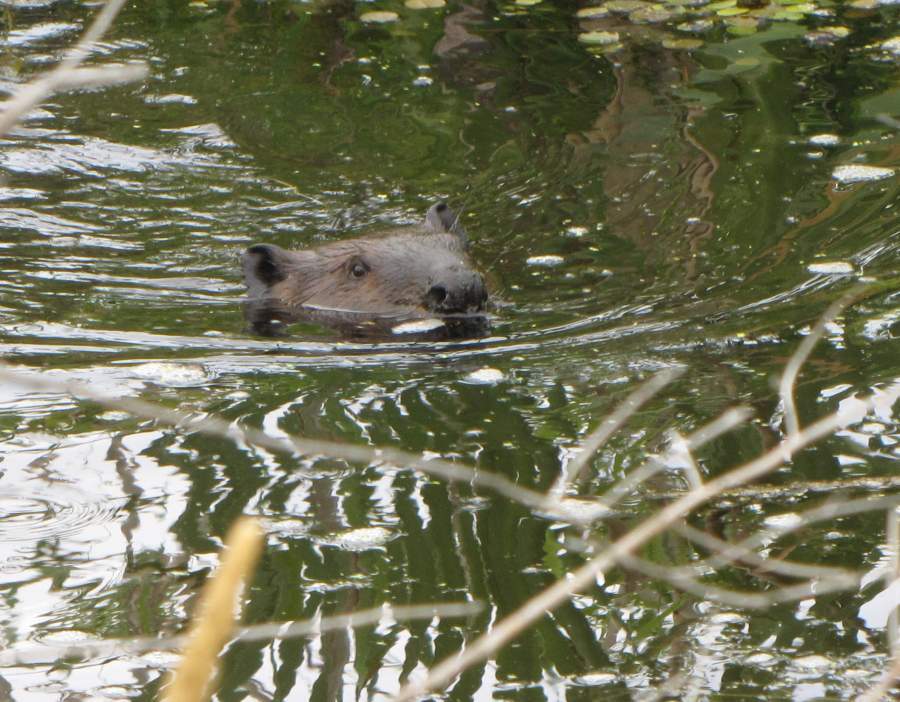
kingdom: Animalia
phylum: Chordata
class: Mammalia
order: Rodentia
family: Castoridae
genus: Castor
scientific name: Castor canadensis
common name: American beaver
